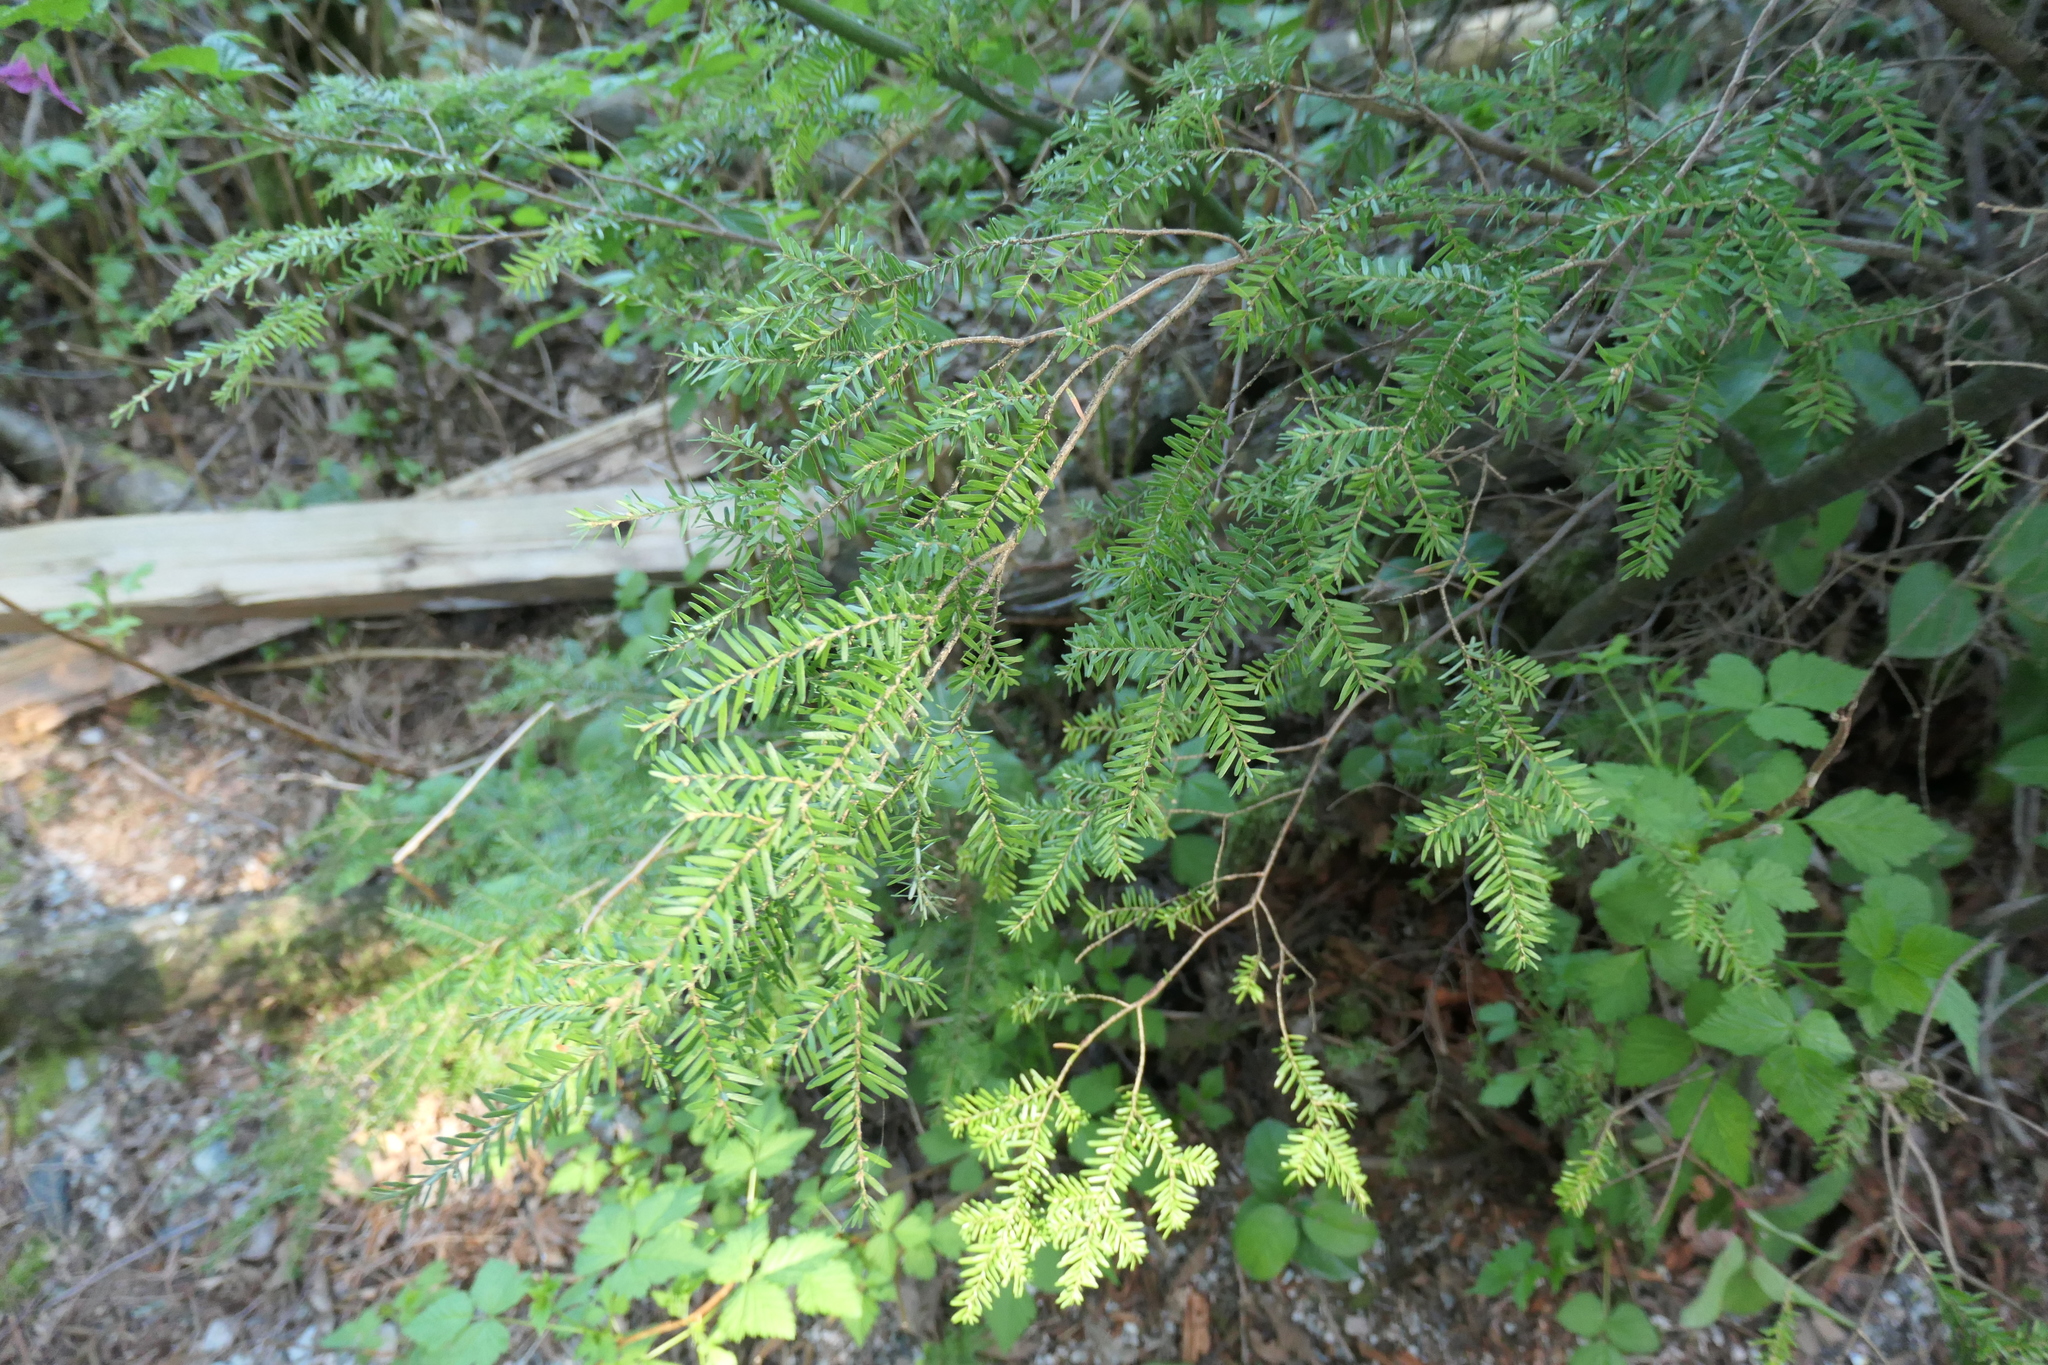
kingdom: Plantae
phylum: Tracheophyta
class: Pinopsida
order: Pinales
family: Pinaceae
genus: Tsuga
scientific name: Tsuga heterophylla
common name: Western hemlock
